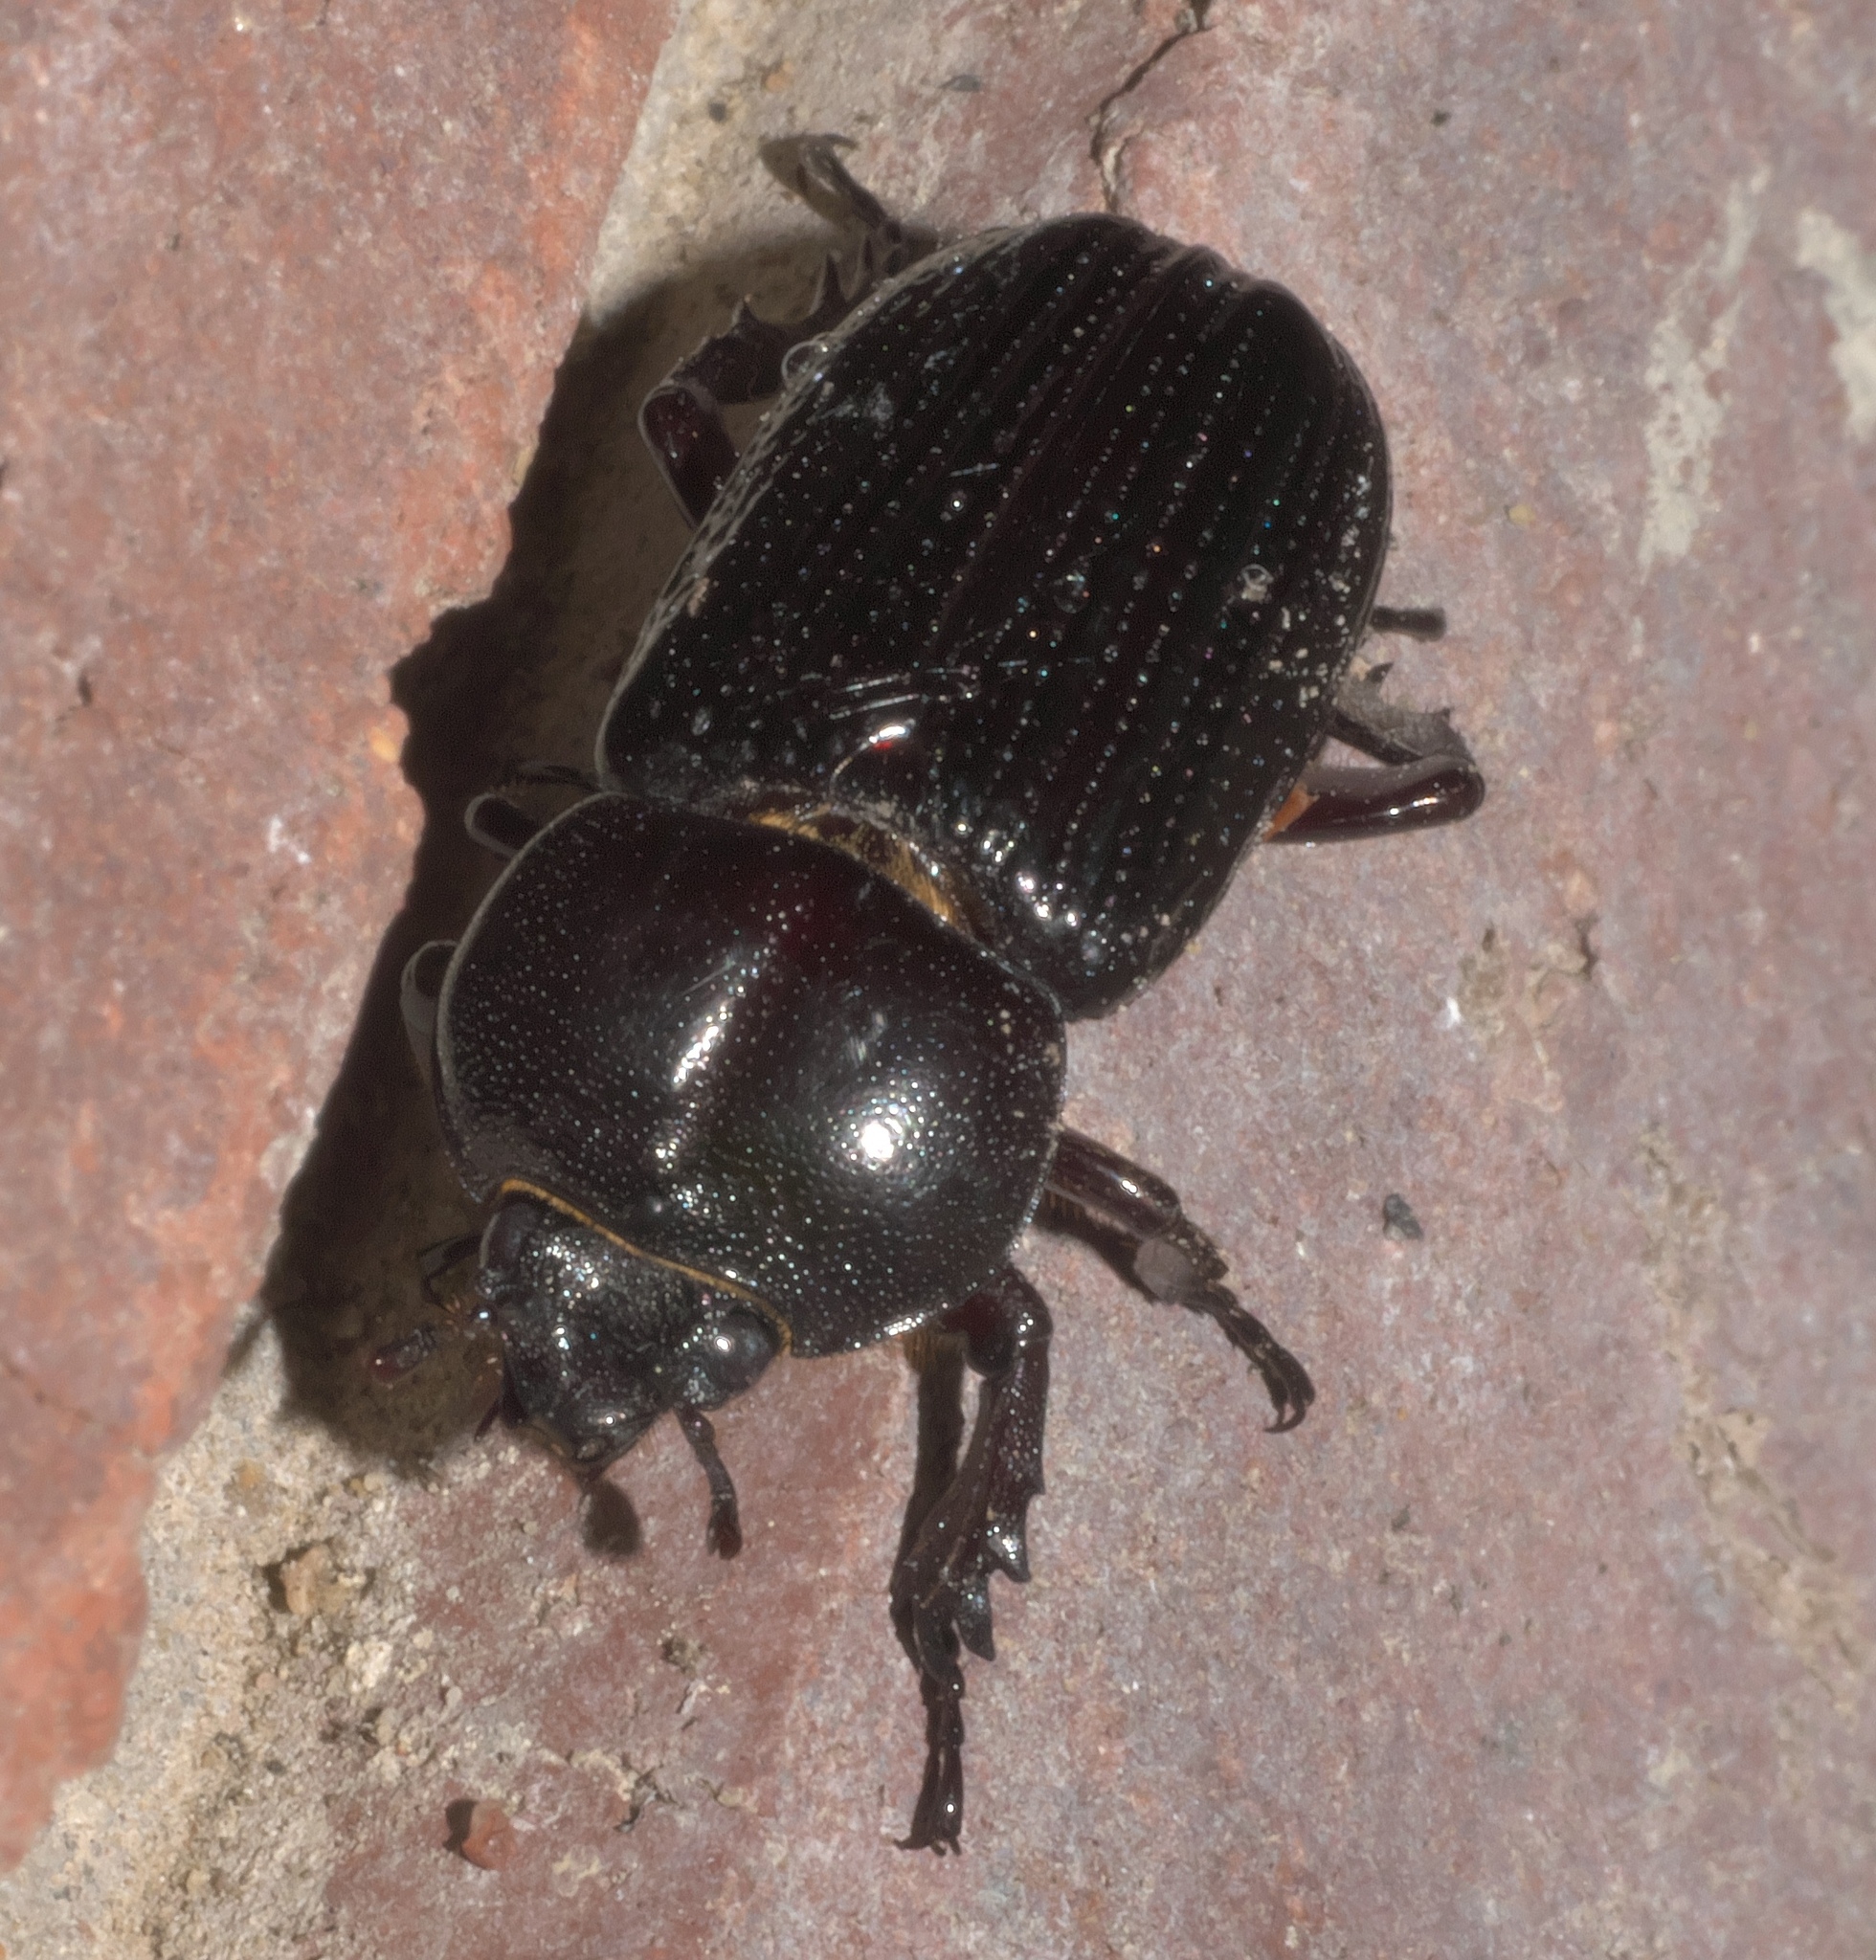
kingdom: Animalia
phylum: Arthropoda
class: Insecta
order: Coleoptera
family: Scarabaeidae
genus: Phileurus
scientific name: Phileurus valgus
